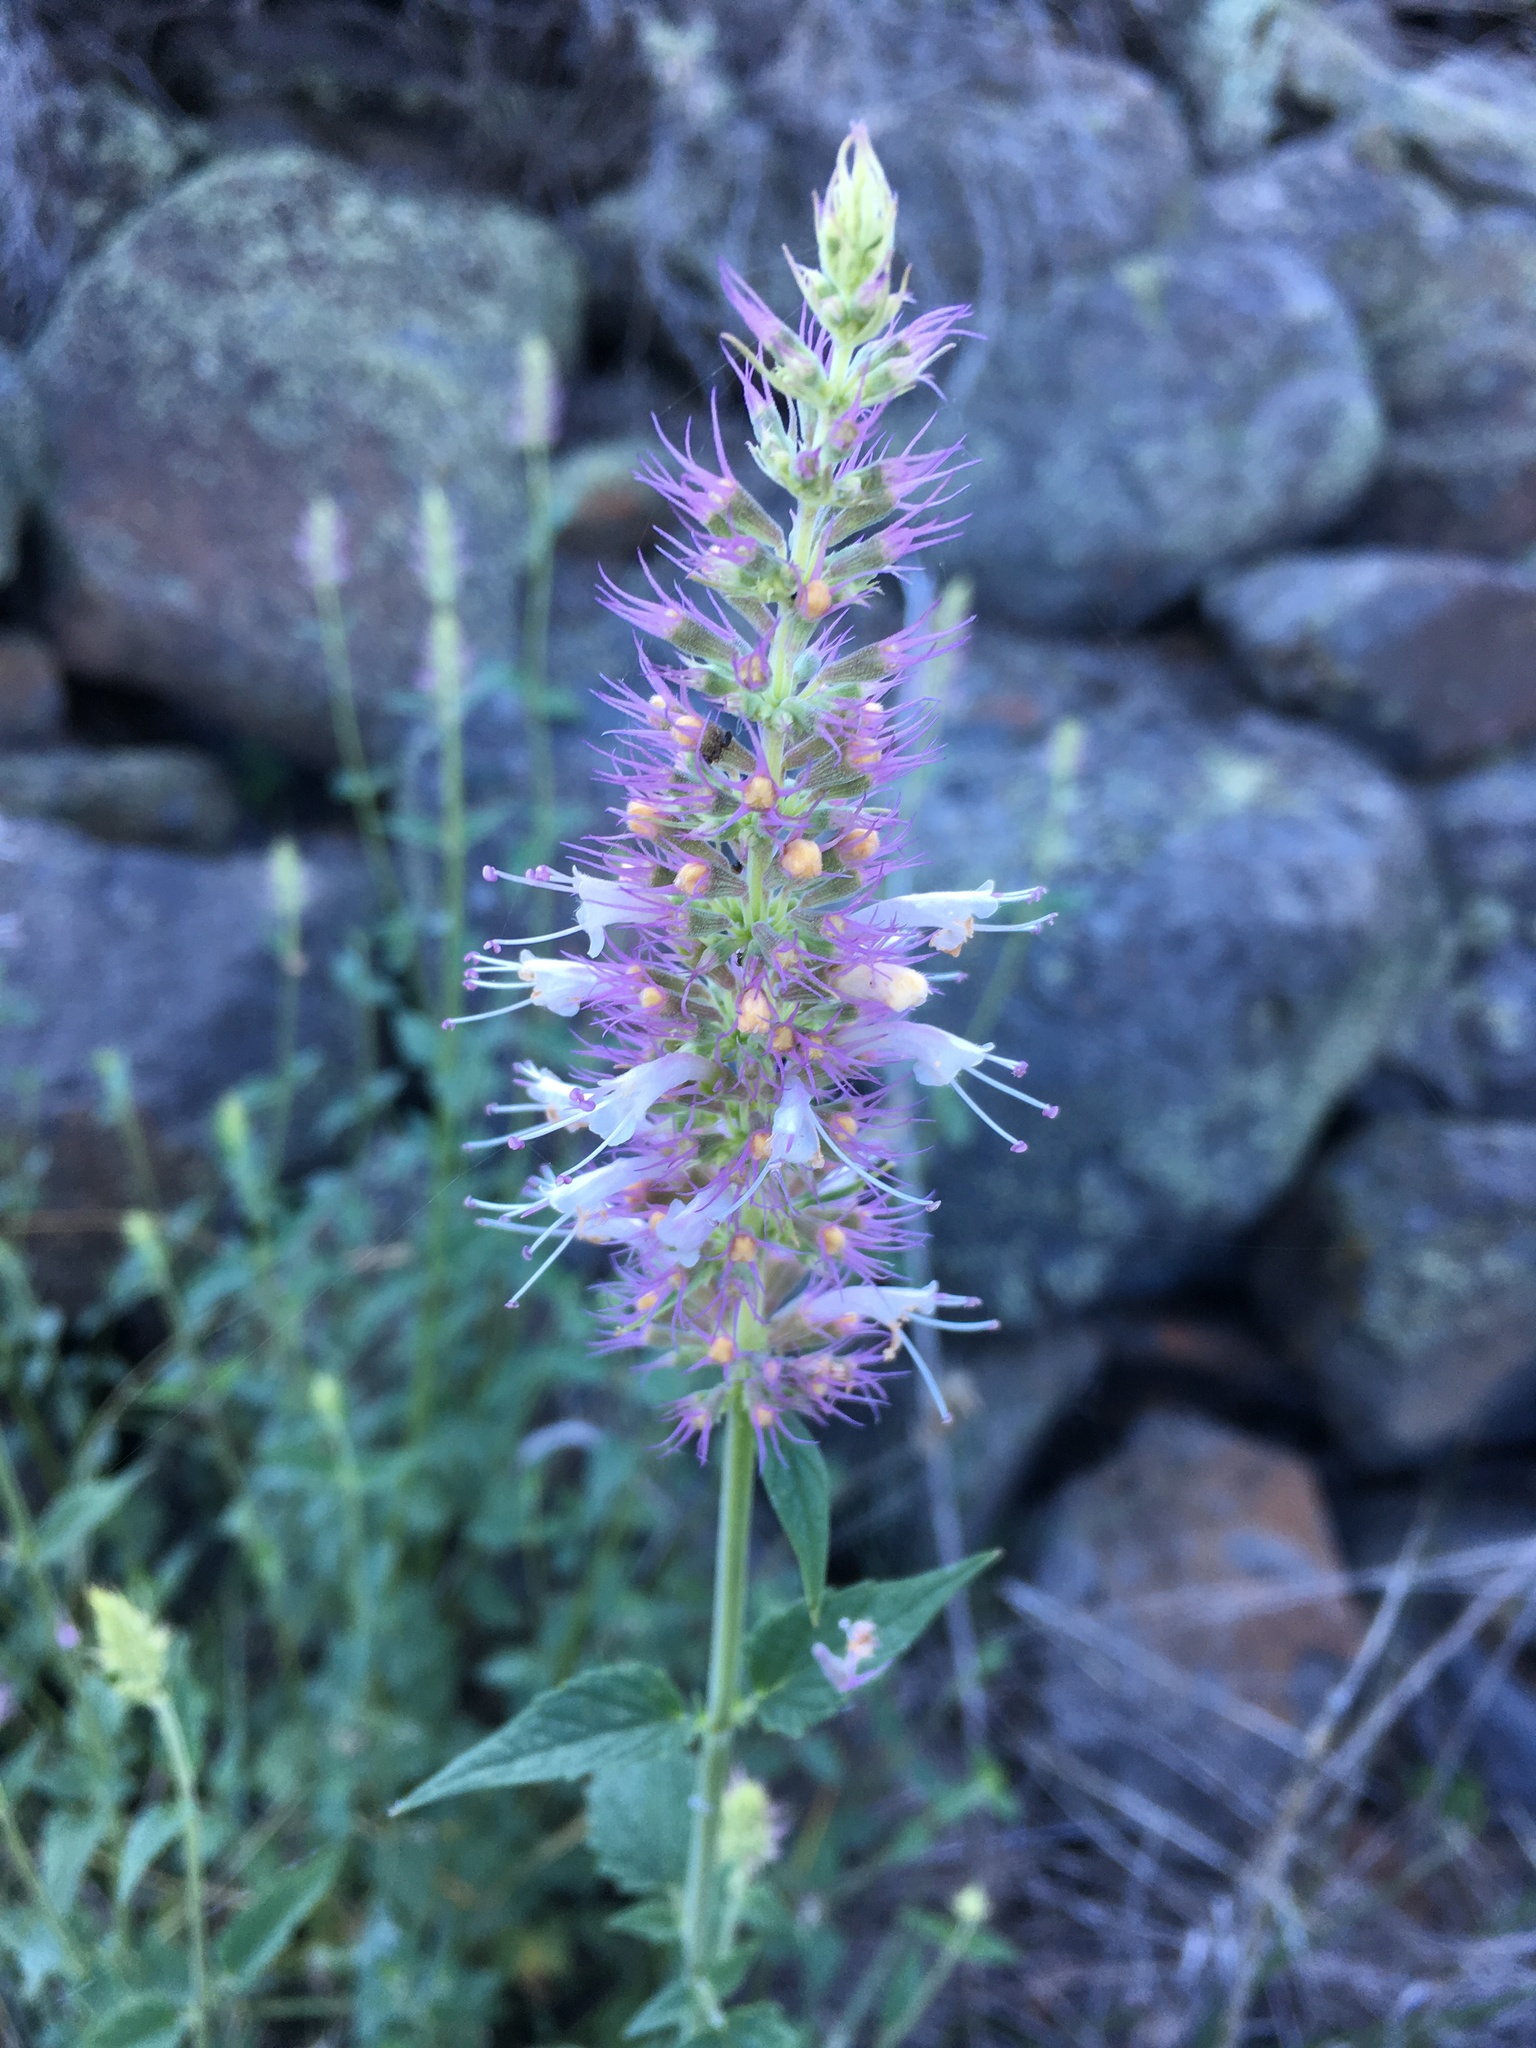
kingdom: Plantae
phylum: Tracheophyta
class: Magnoliopsida
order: Lamiales
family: Lamiaceae
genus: Agastache
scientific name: Agastache parvifolia
